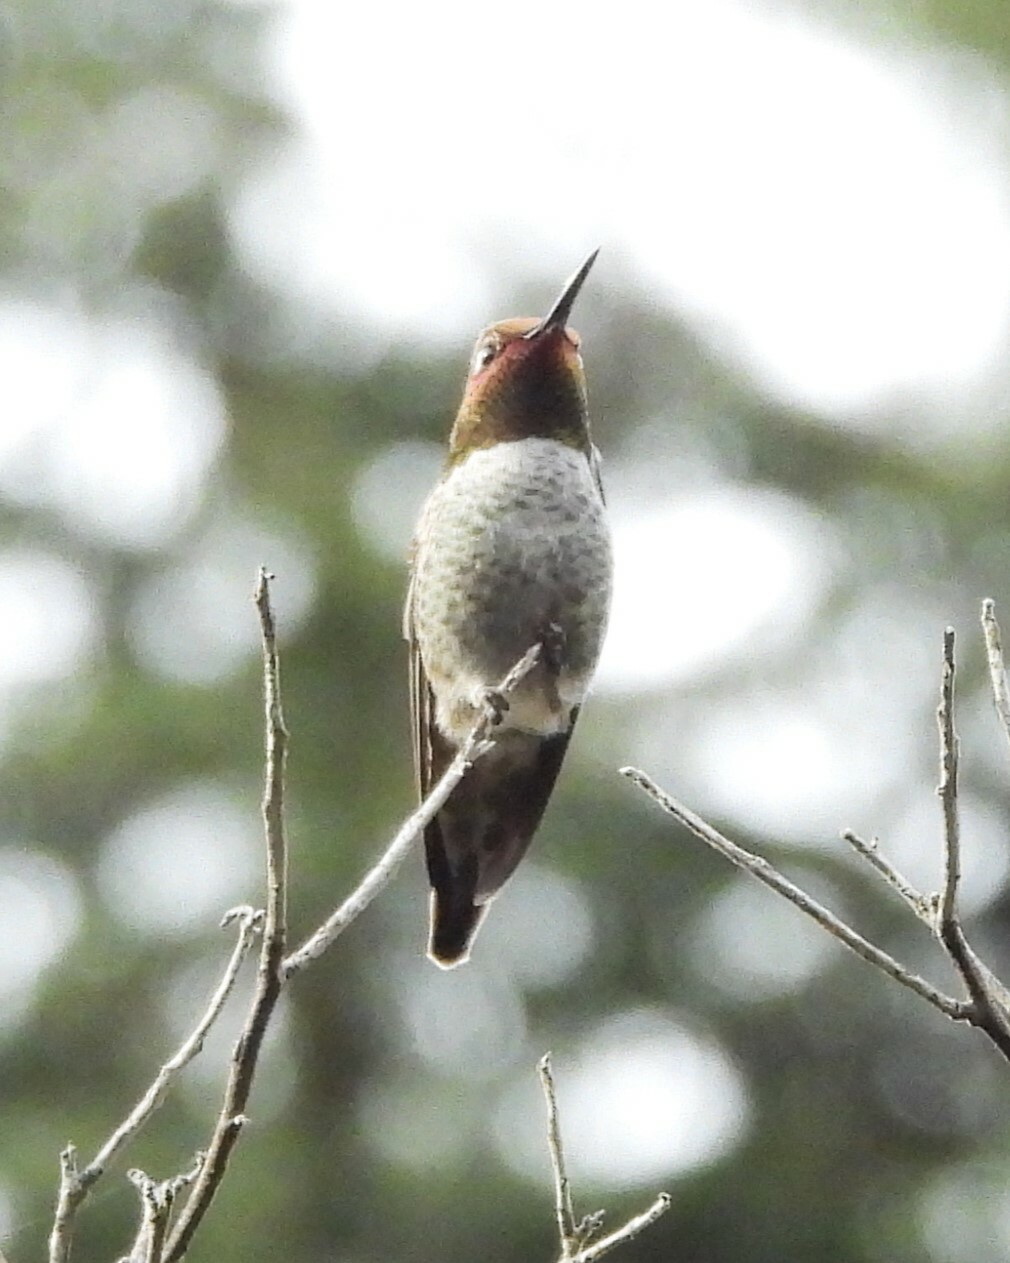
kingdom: Animalia
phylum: Chordata
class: Aves
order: Apodiformes
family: Trochilidae
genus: Calypte
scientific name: Calypte anna
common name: Anna's hummingbird
